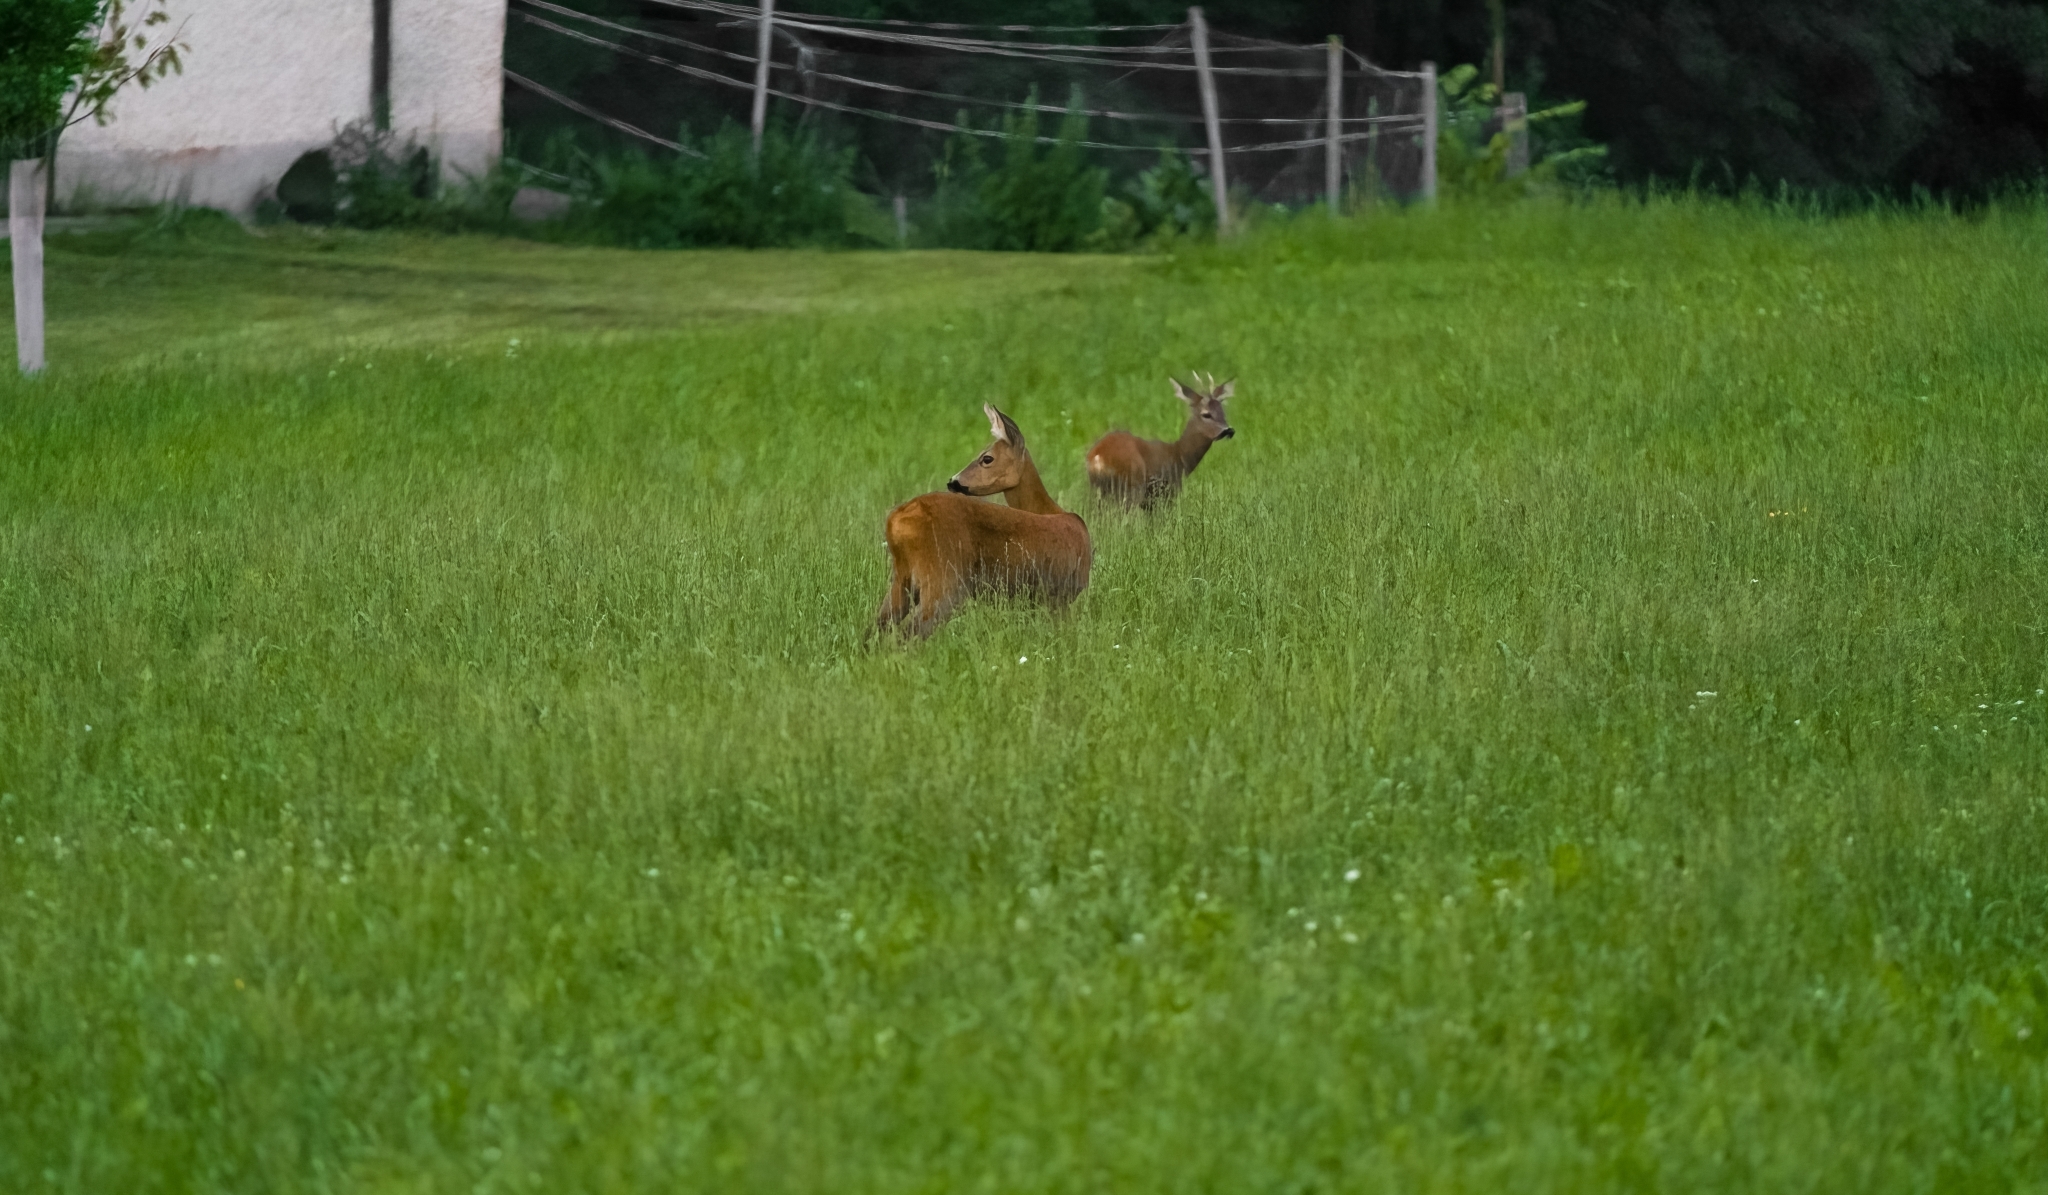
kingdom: Animalia
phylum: Chordata
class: Mammalia
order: Artiodactyla
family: Cervidae
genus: Capreolus
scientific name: Capreolus capreolus
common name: Western roe deer
